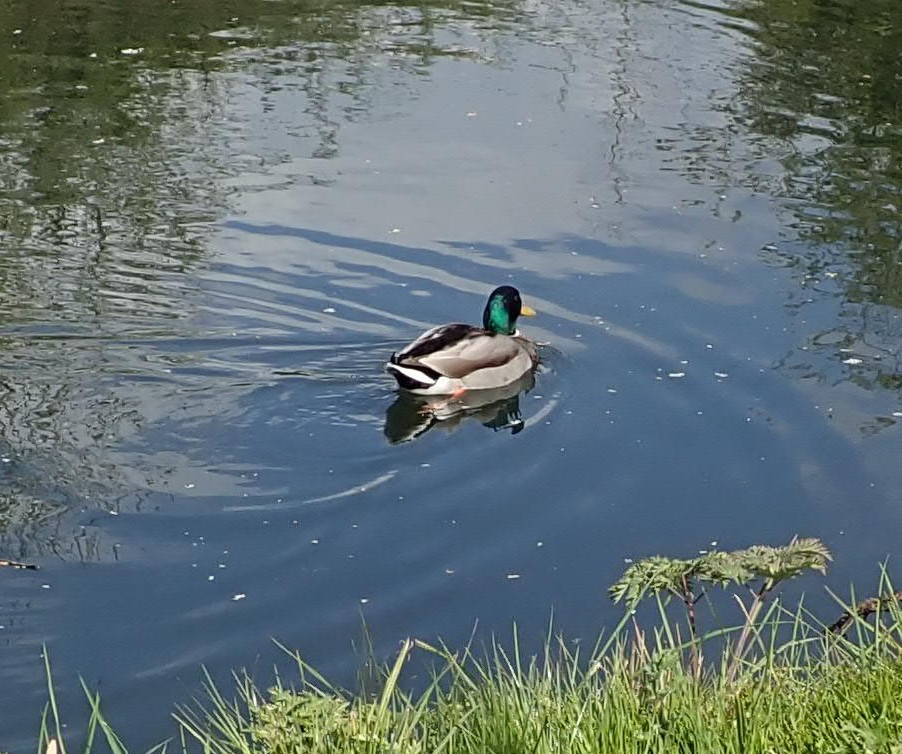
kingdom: Animalia
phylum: Chordata
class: Aves
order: Anseriformes
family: Anatidae
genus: Anas
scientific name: Anas platyrhynchos
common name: Mallard
